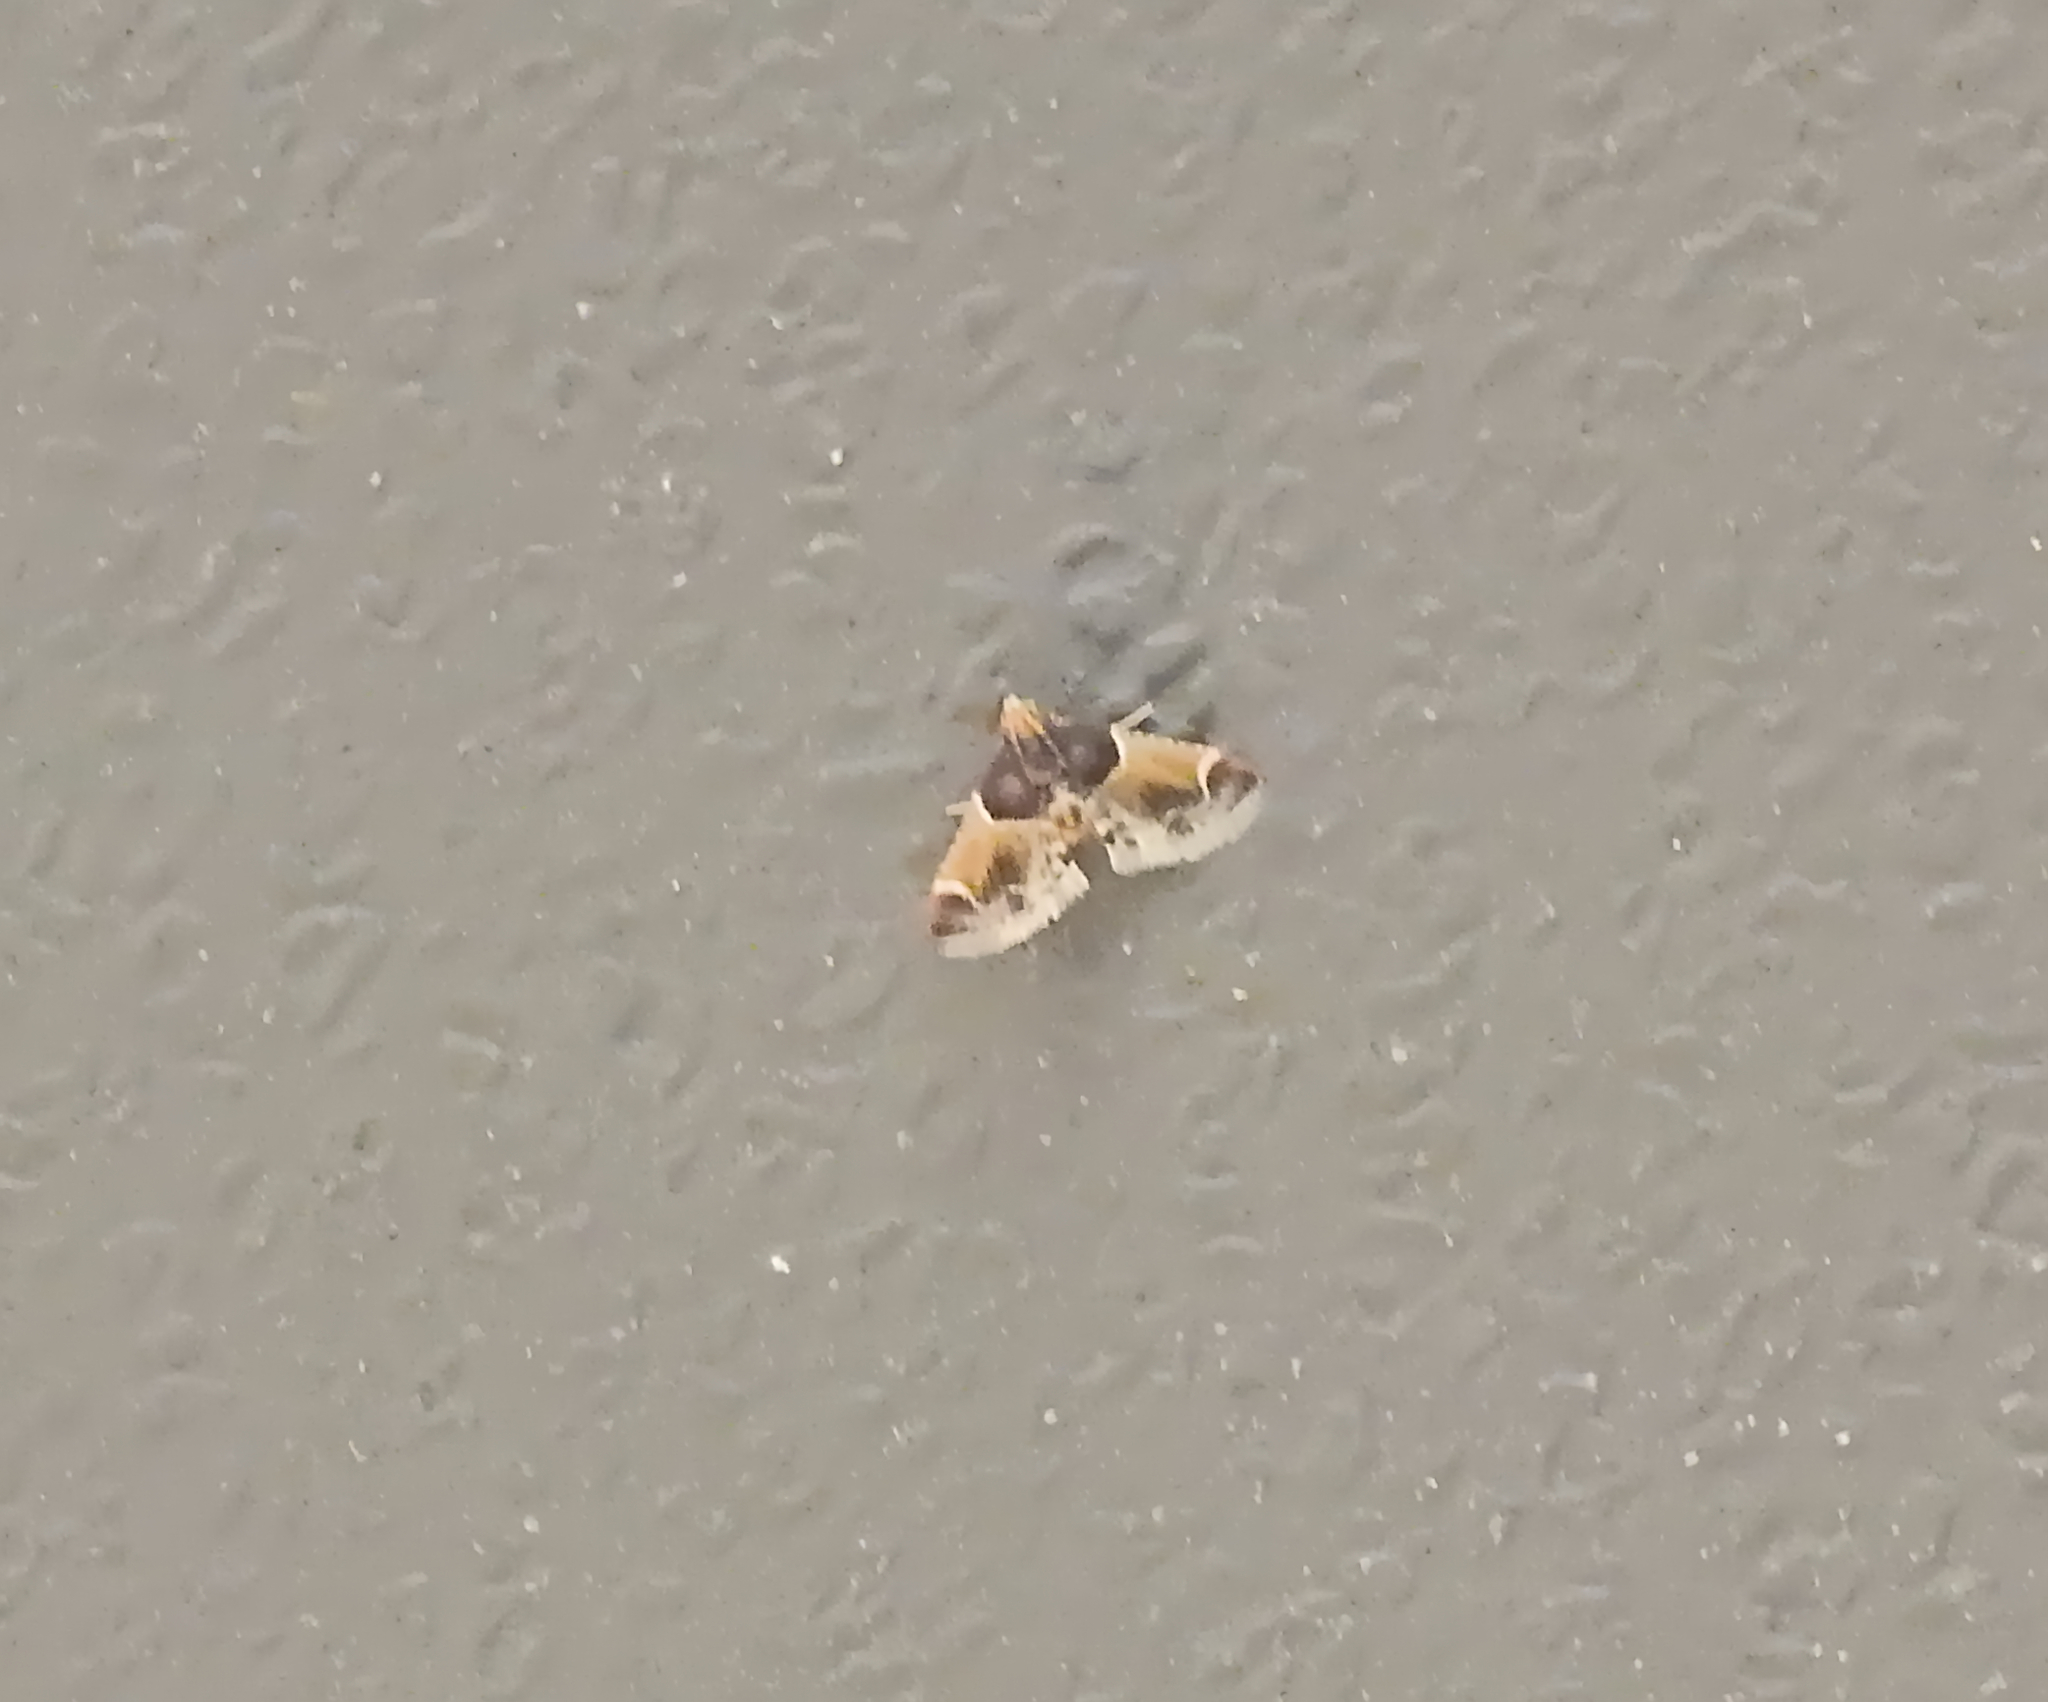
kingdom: Animalia
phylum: Arthropoda
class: Insecta
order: Lepidoptera
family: Pyralidae
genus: Pyralis
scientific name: Pyralis farinalis
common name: Meal moth
